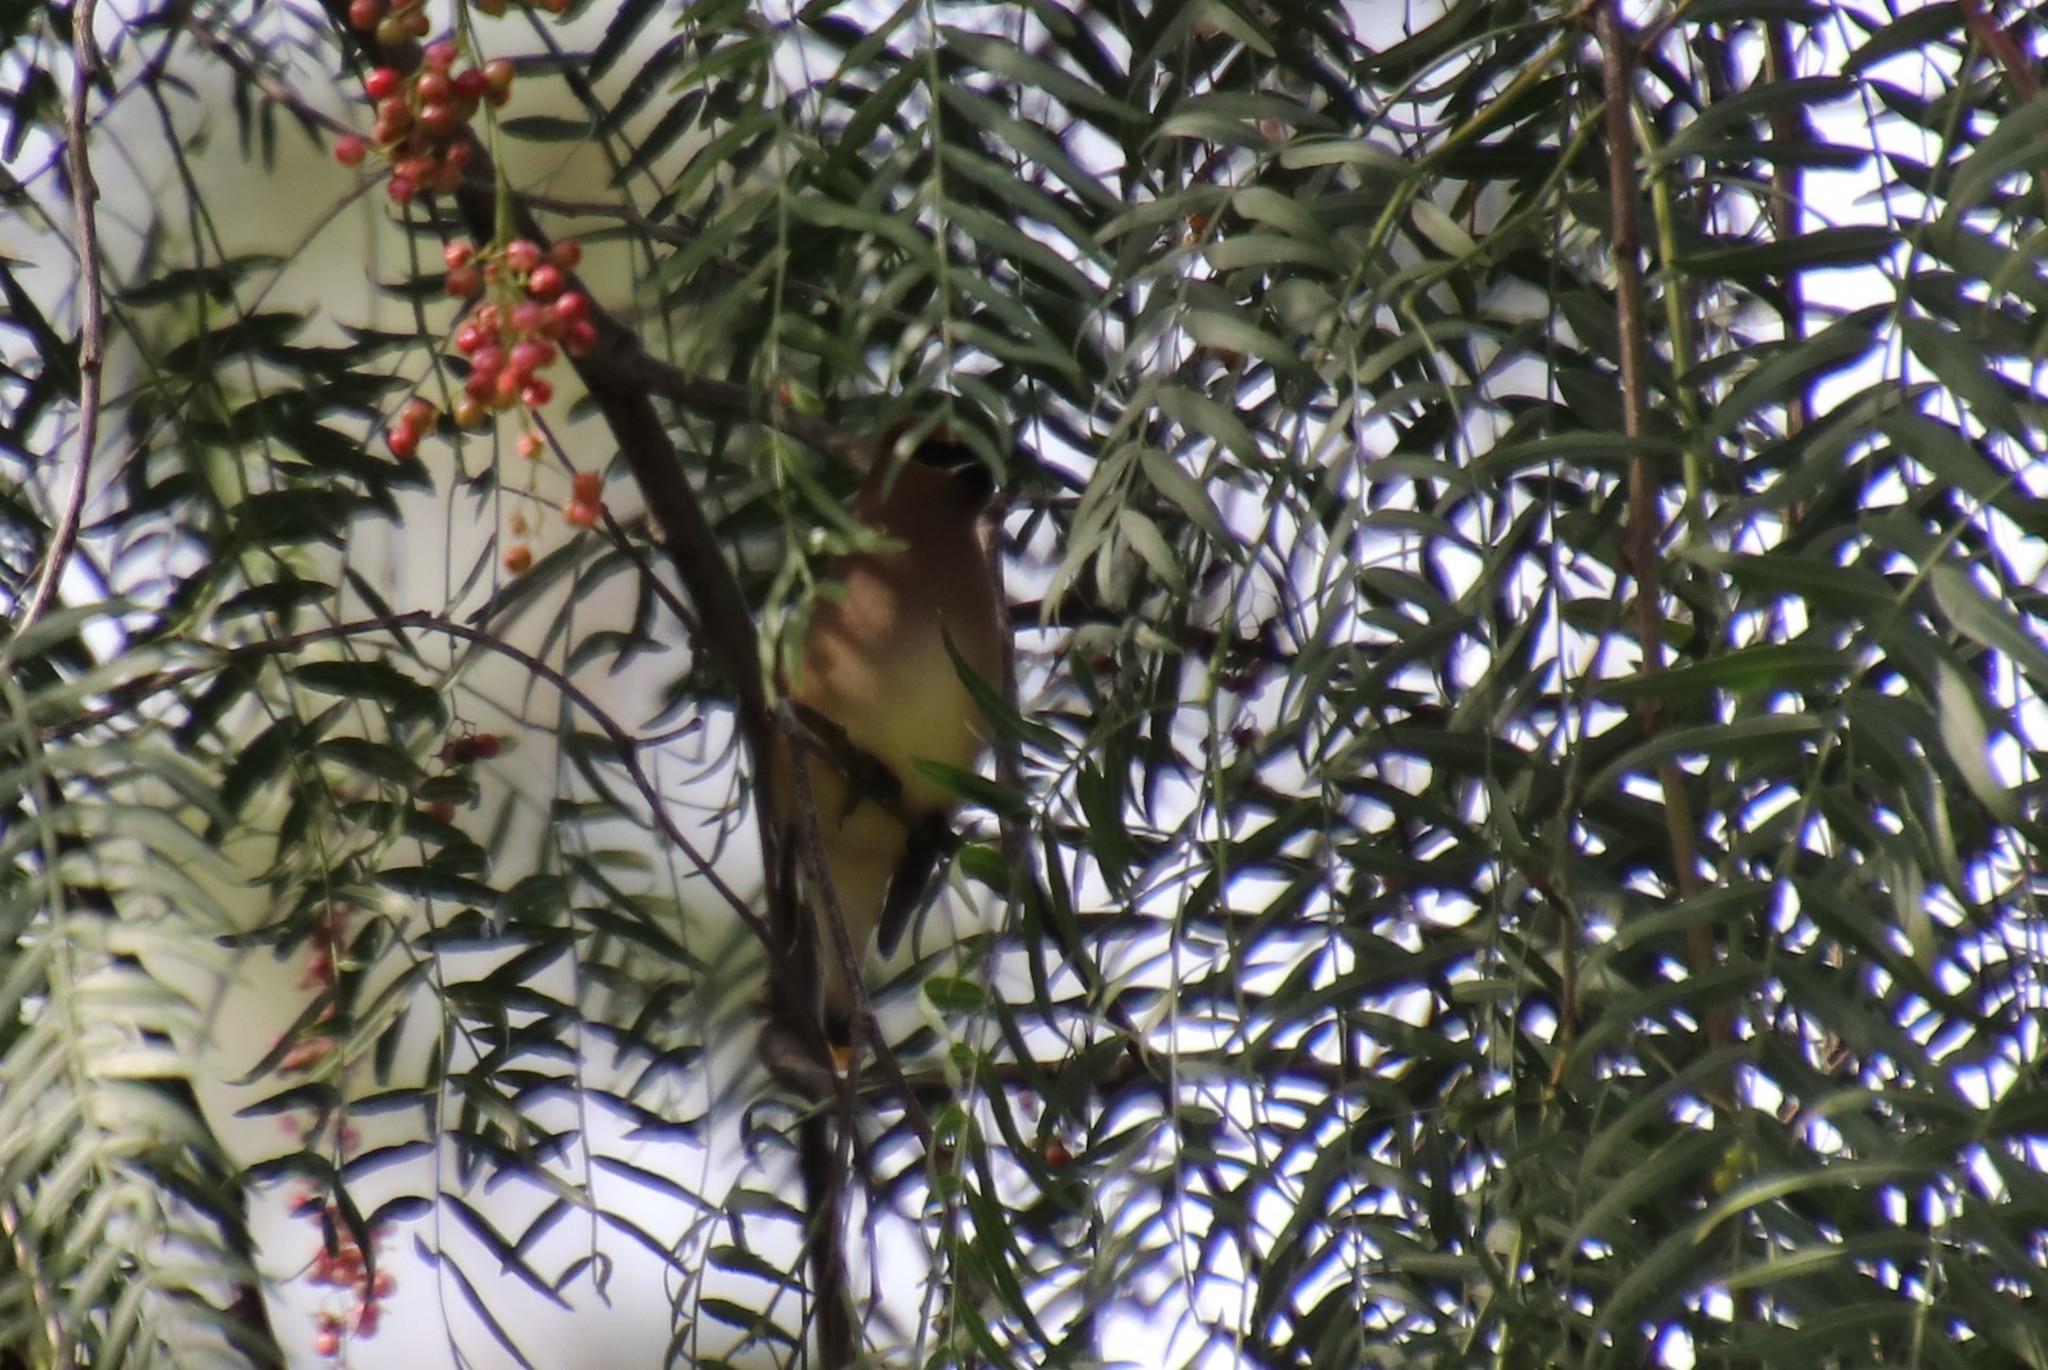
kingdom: Animalia
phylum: Chordata
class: Aves
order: Passeriformes
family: Bombycillidae
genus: Bombycilla
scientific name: Bombycilla cedrorum
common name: Cedar waxwing
